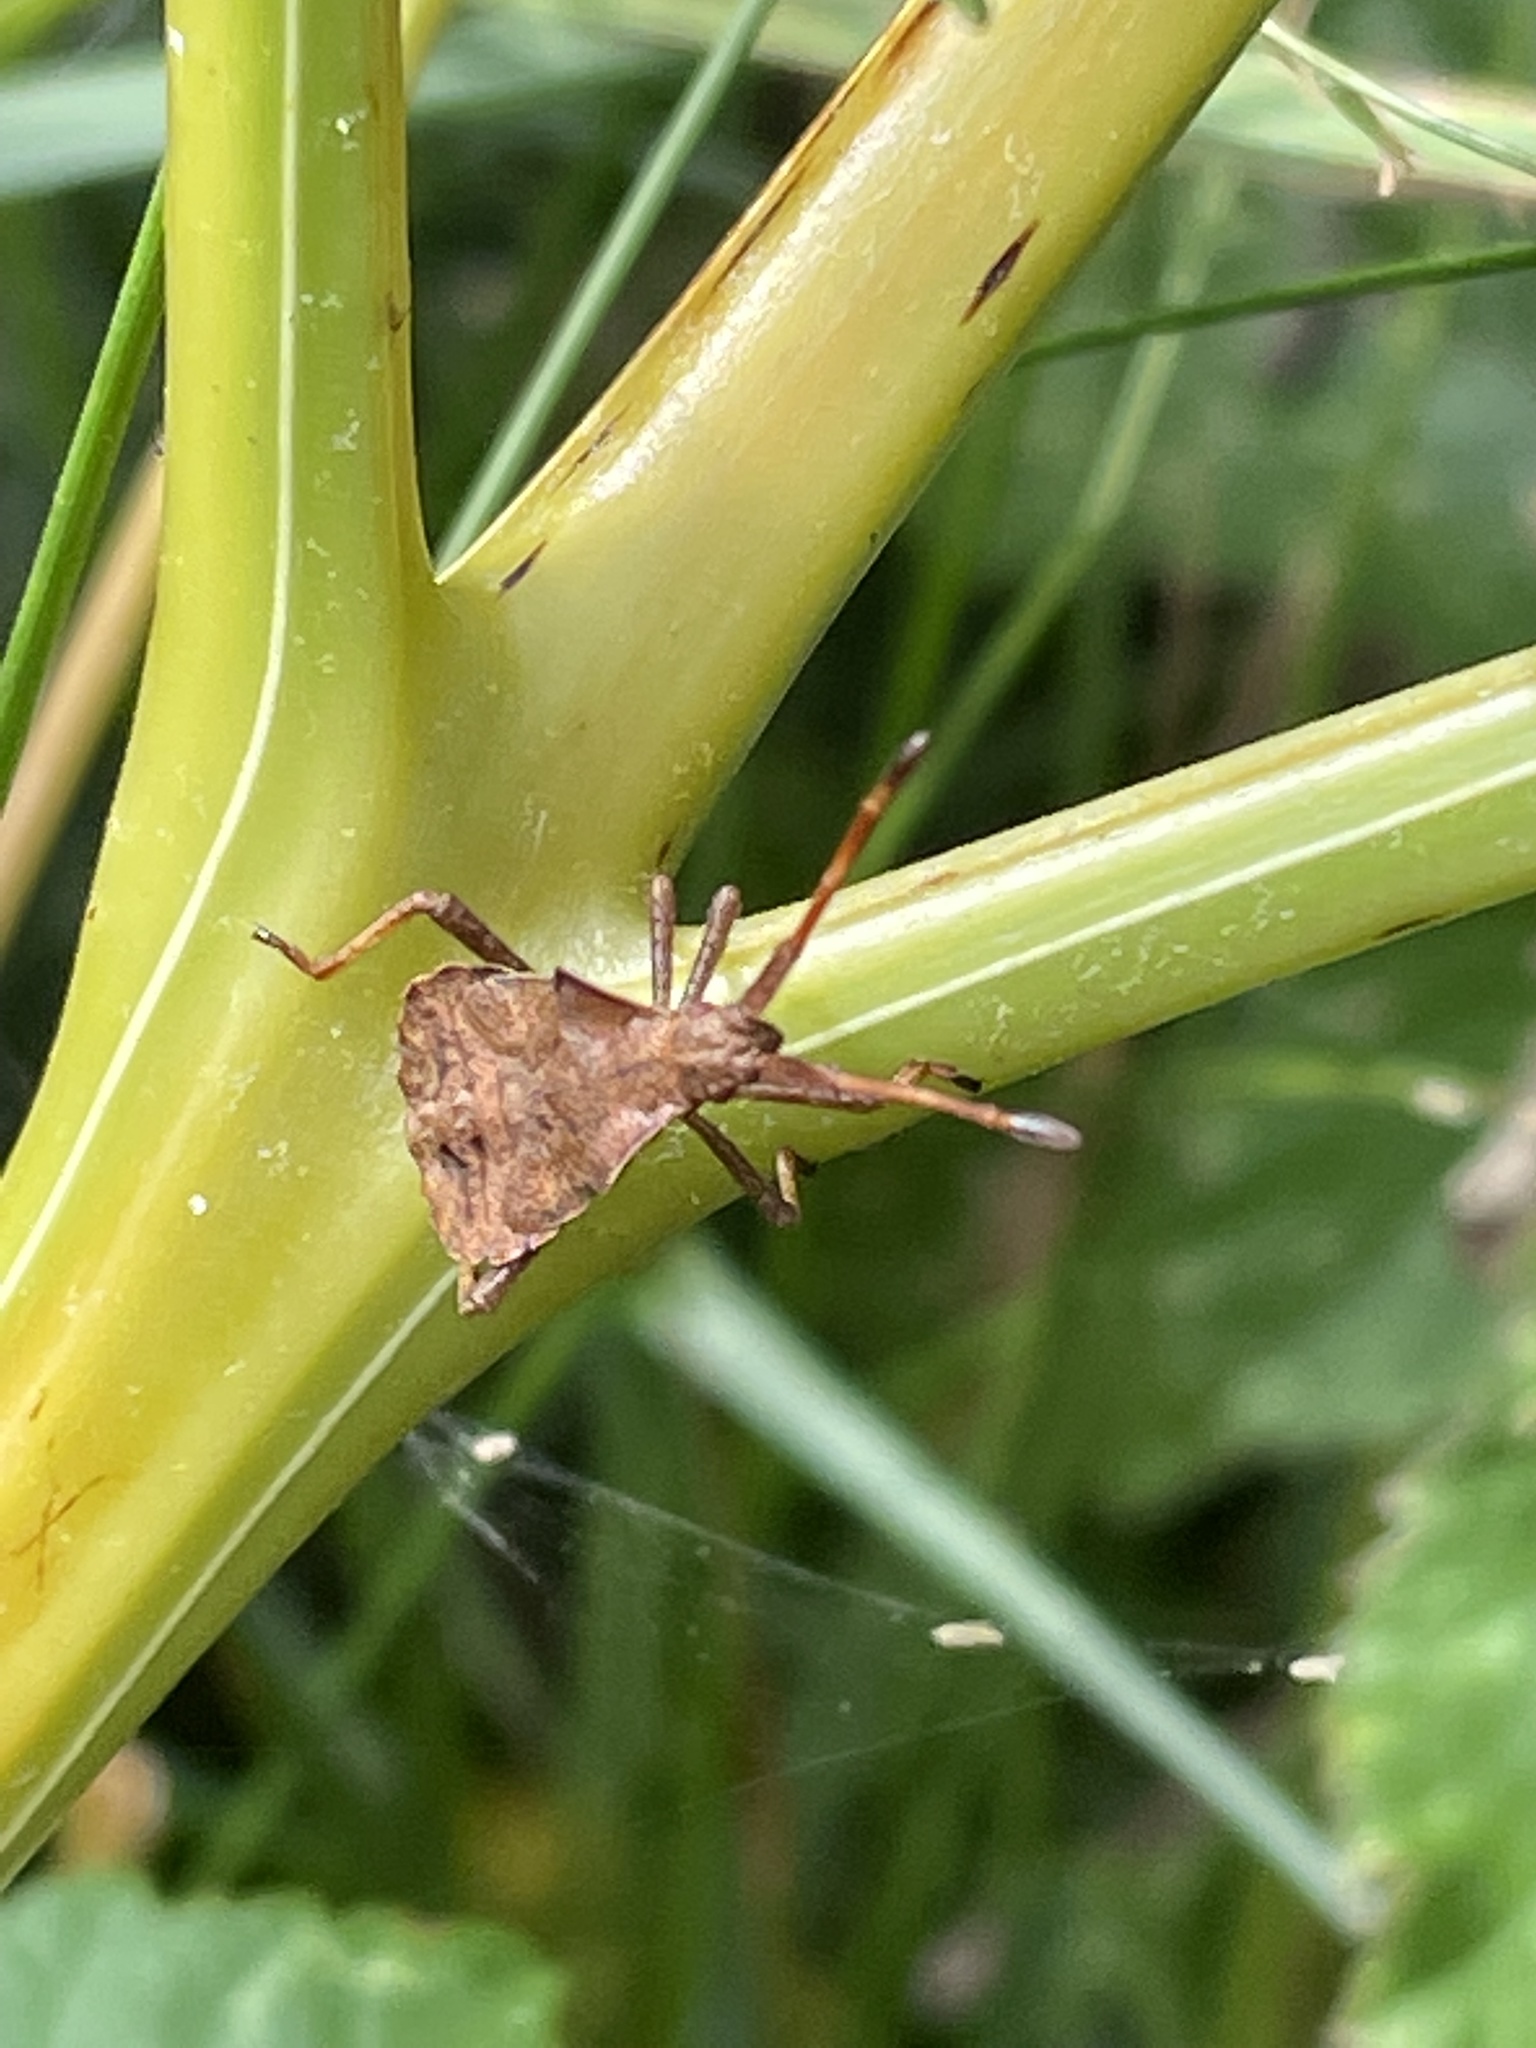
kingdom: Animalia
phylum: Arthropoda
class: Insecta
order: Hemiptera
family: Coreidae
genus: Coreus
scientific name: Coreus marginatus
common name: Dock bug
